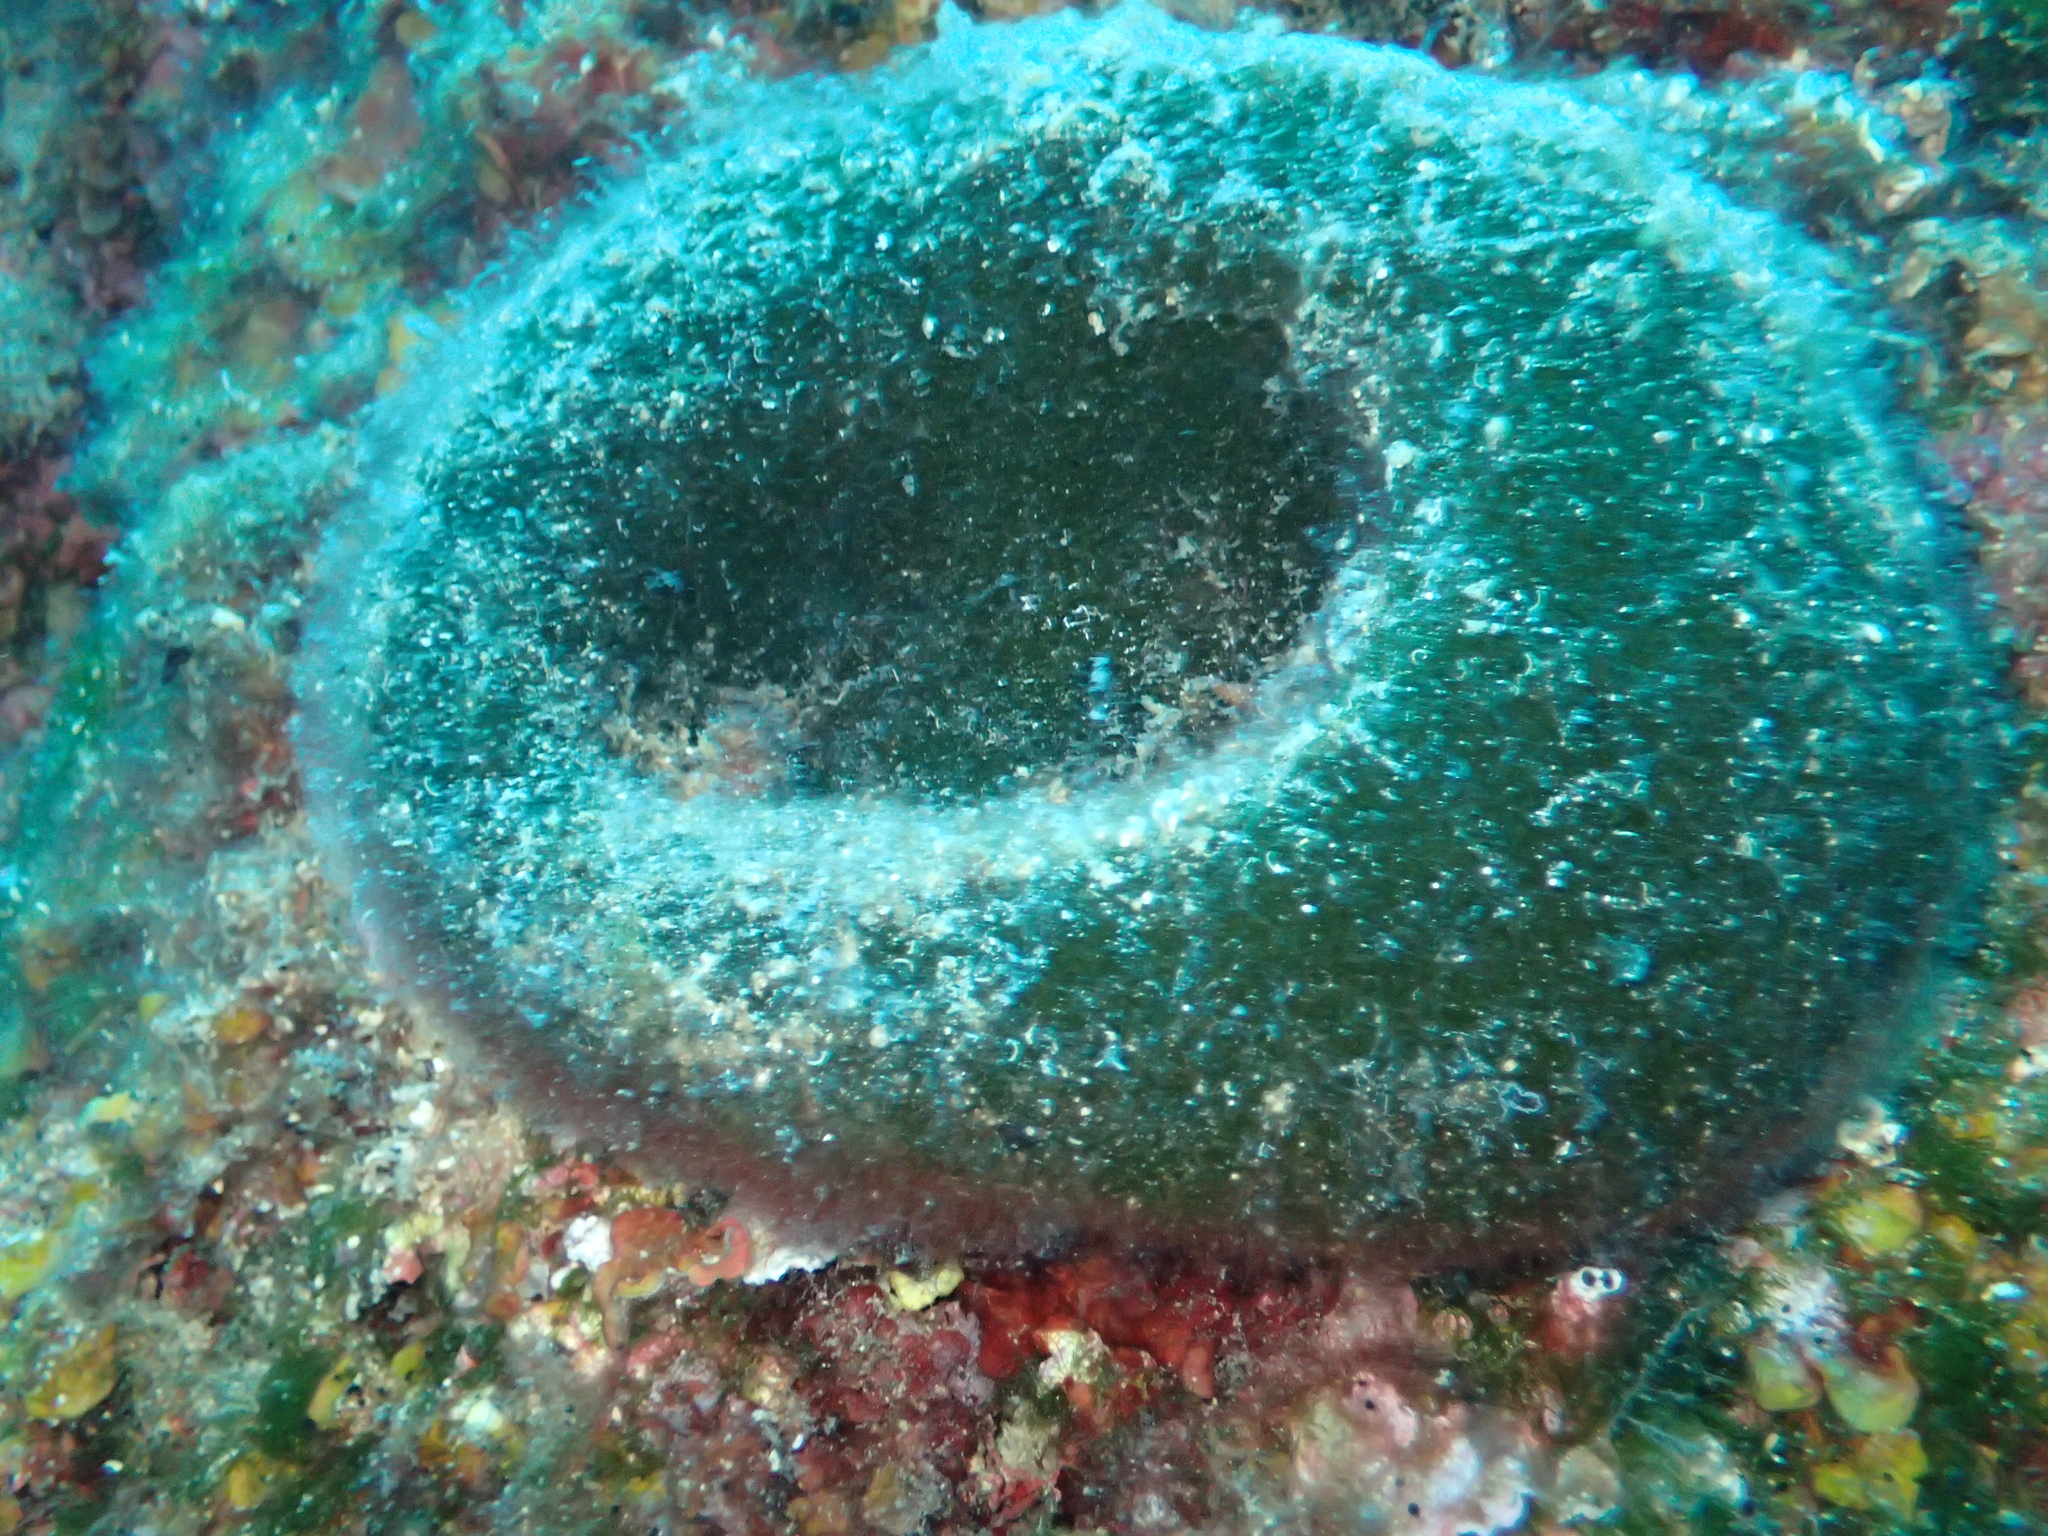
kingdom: Plantae
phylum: Chlorophyta
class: Ulvophyceae
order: Bryopsidales
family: Codiaceae
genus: Codium
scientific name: Codium bursa
